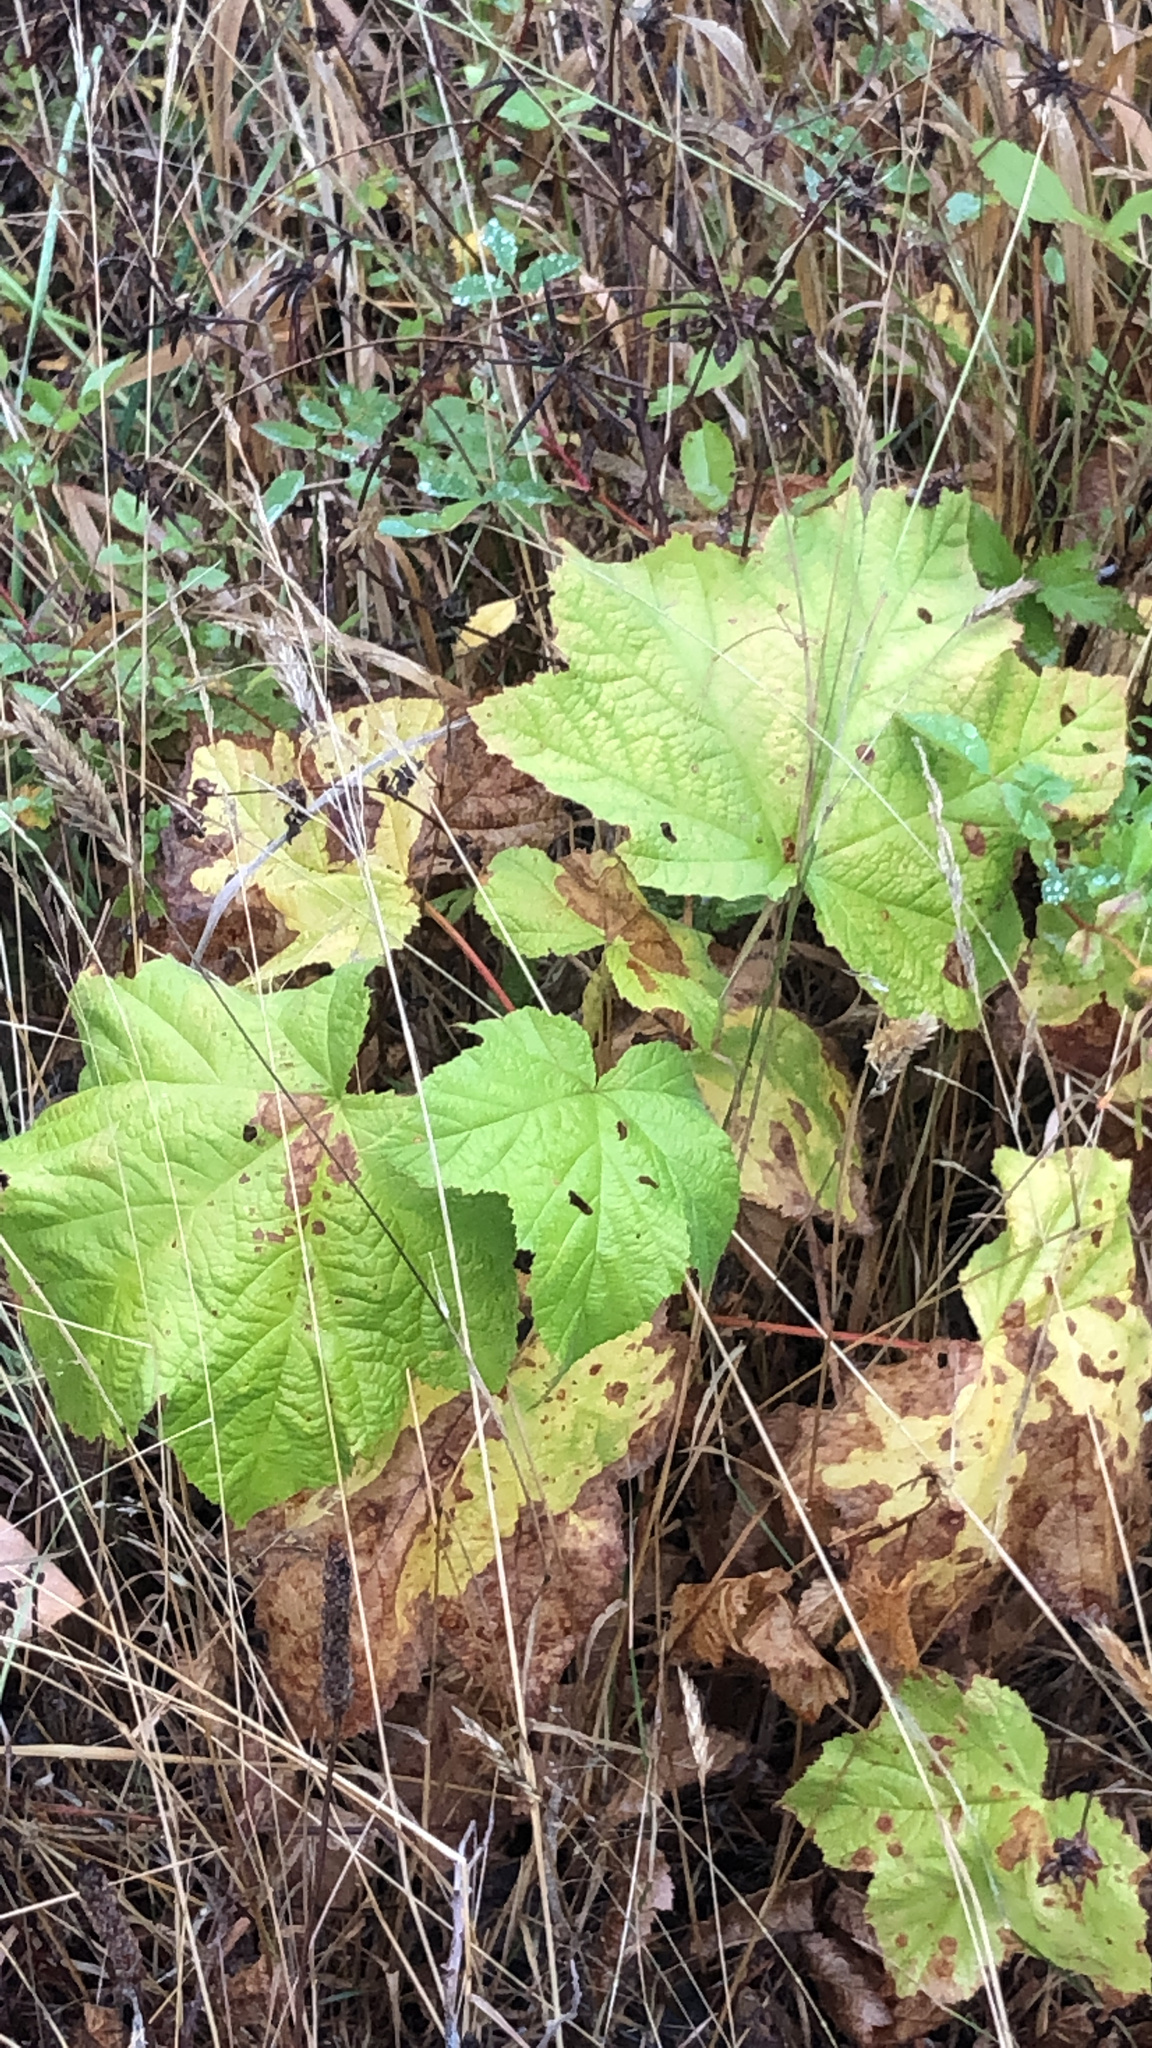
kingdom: Plantae
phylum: Tracheophyta
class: Magnoliopsida
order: Rosales
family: Rosaceae
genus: Rubus
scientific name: Rubus parviflorus
